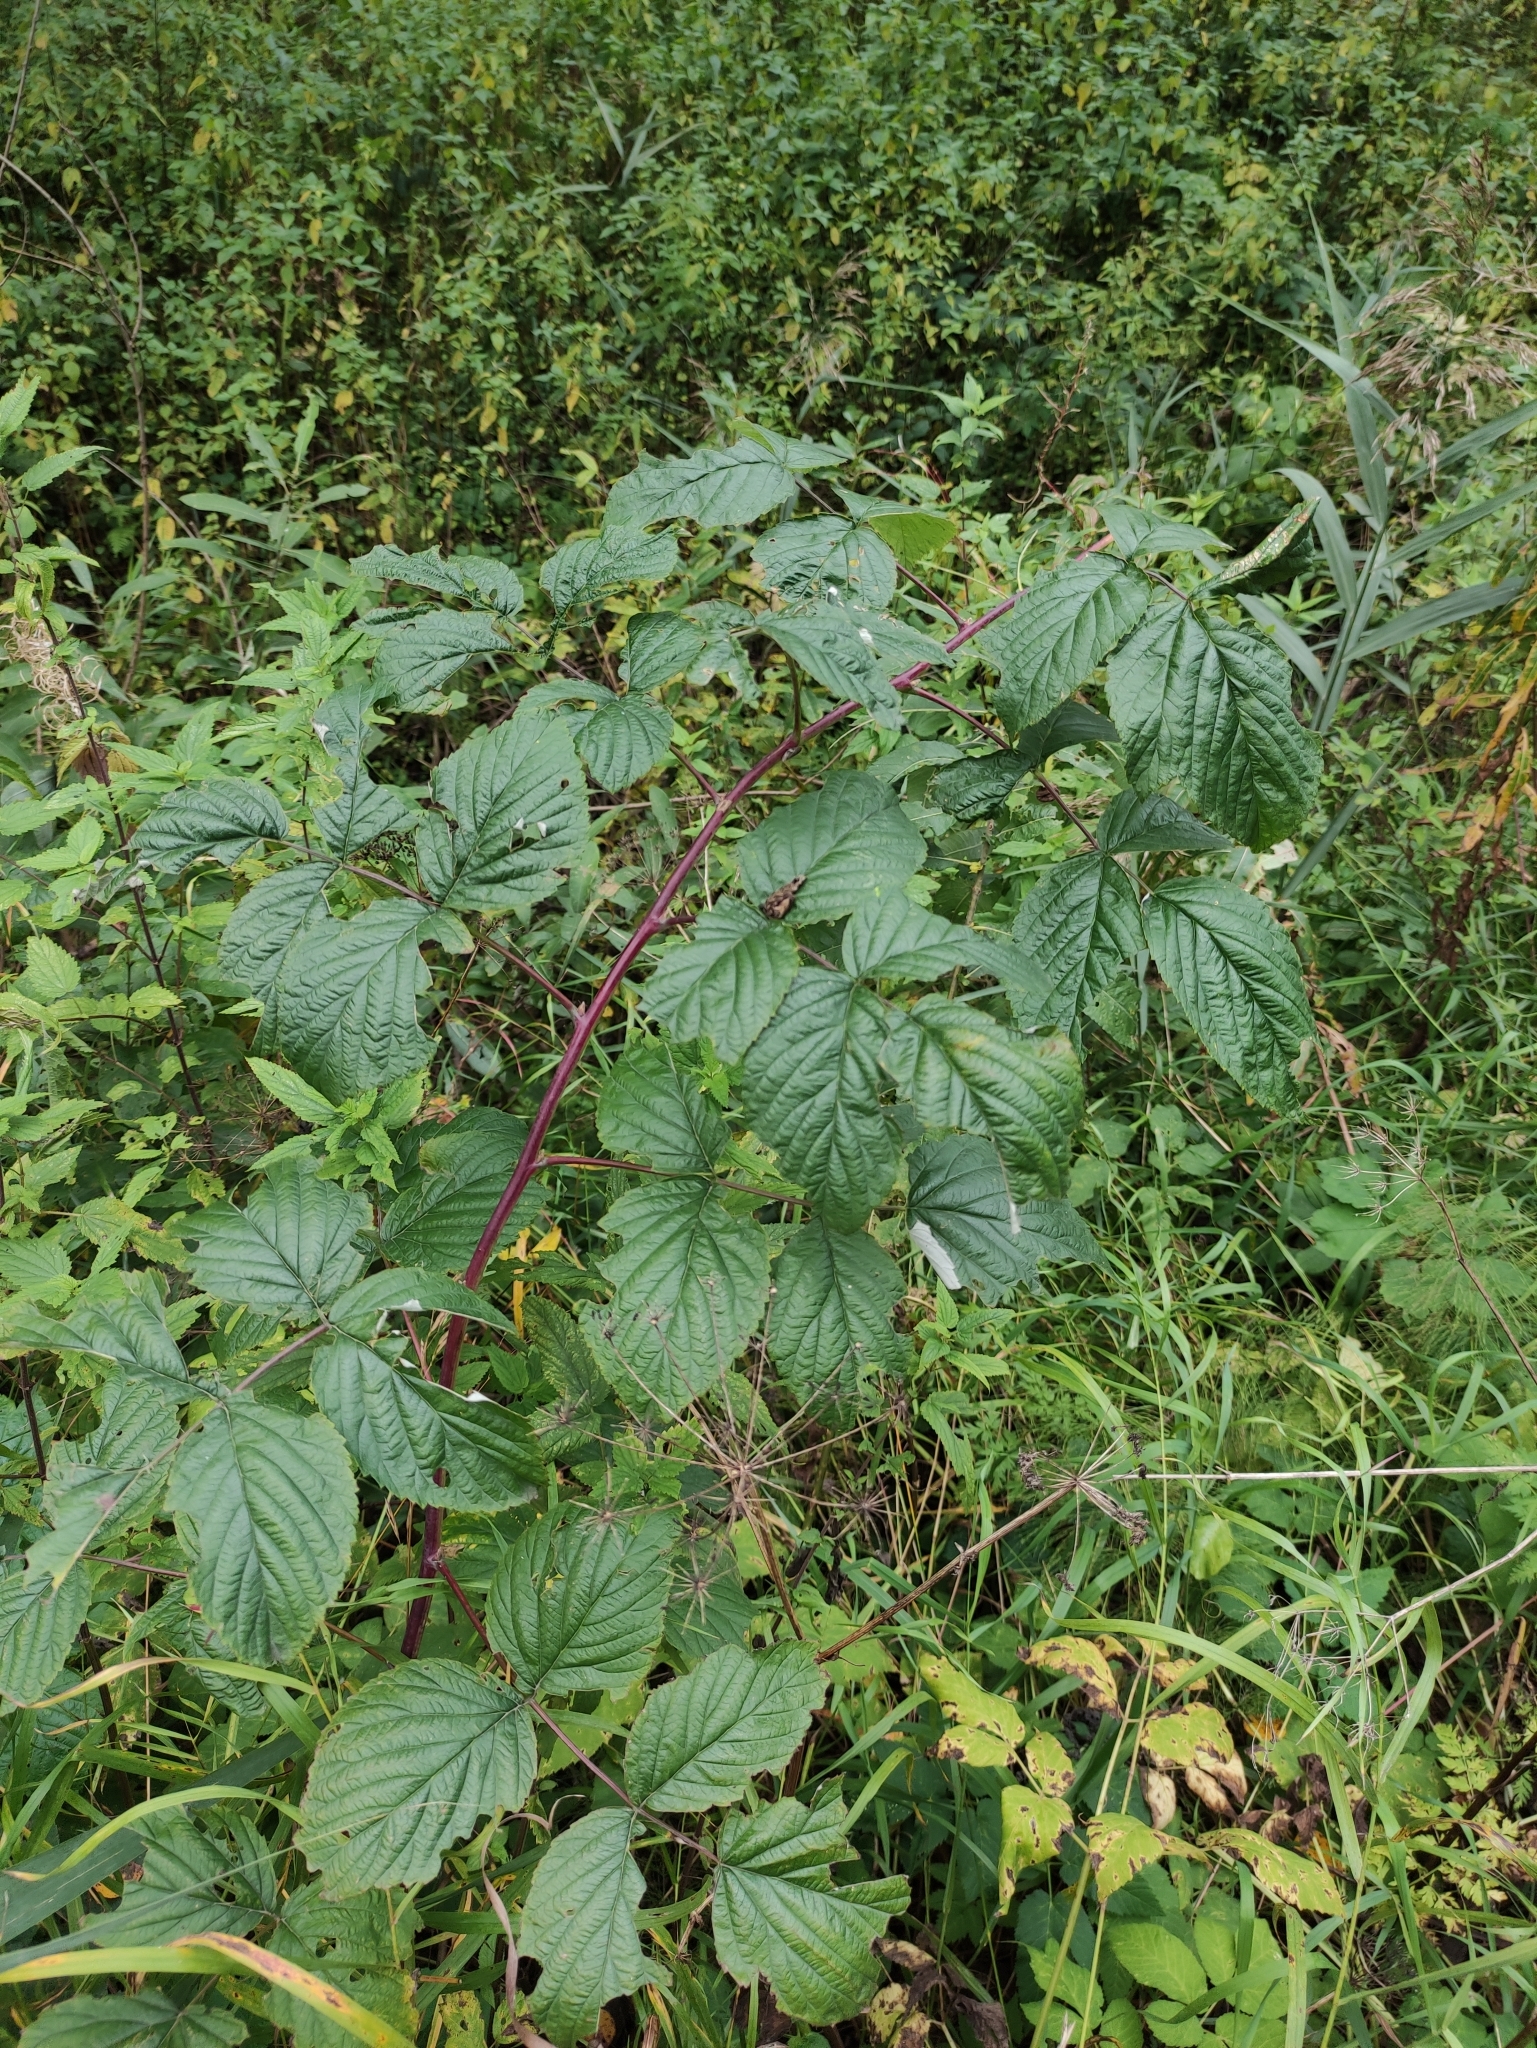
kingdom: Plantae
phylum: Tracheophyta
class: Magnoliopsida
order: Rosales
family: Rosaceae
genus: Rubus
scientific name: Rubus idaeus
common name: Raspberry
